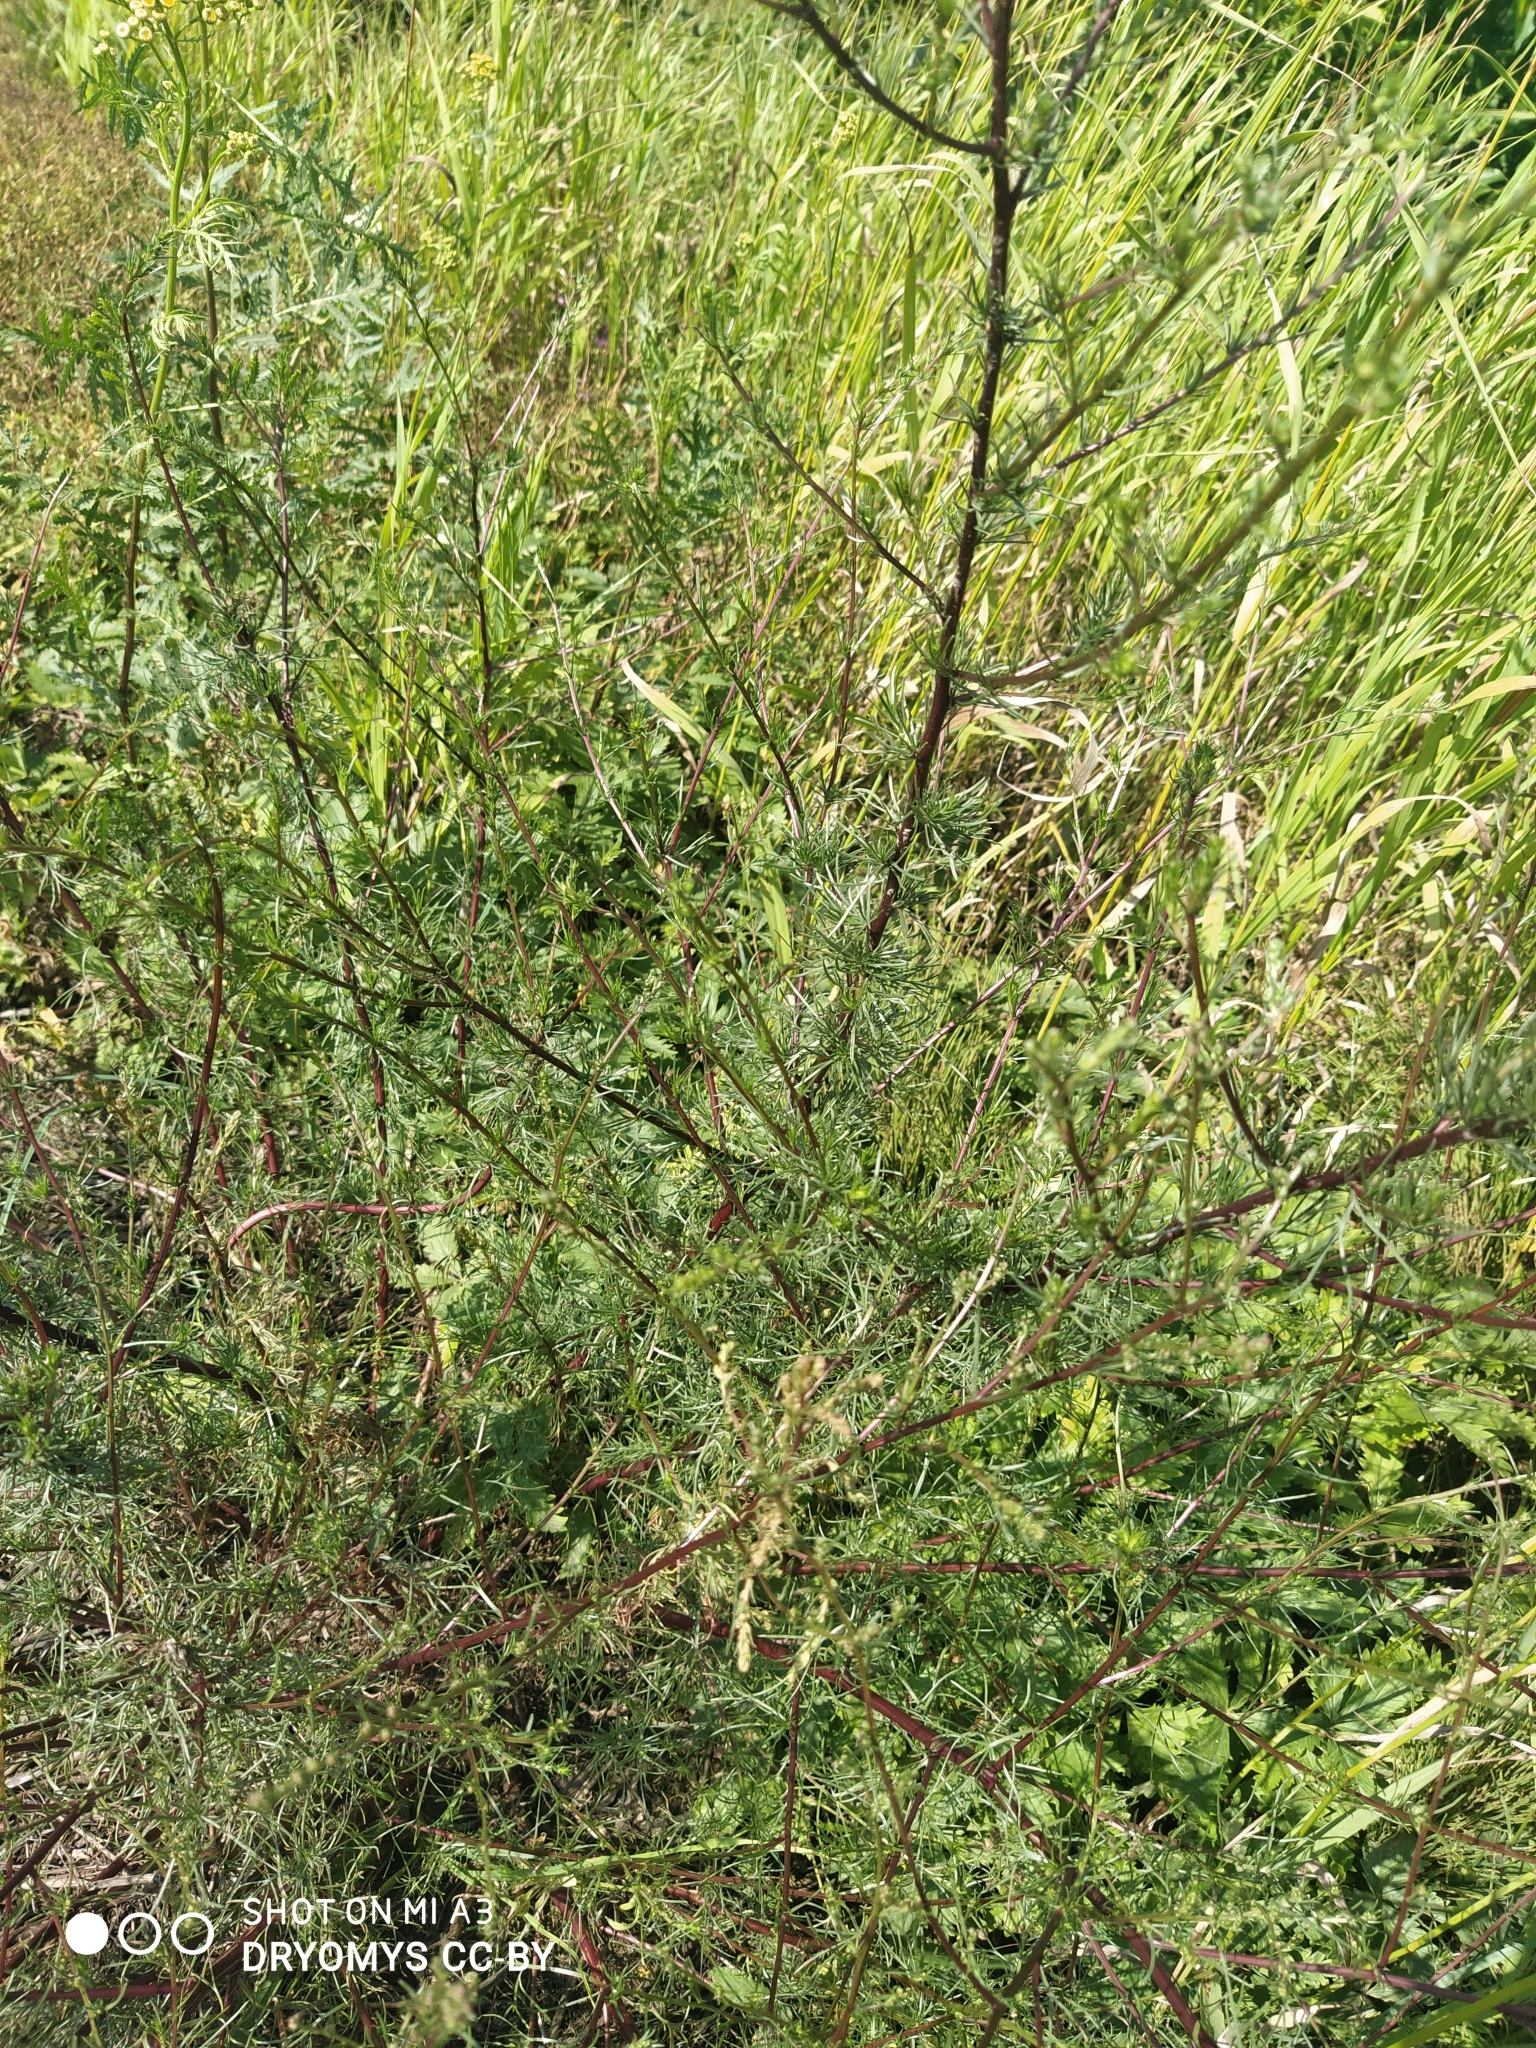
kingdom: Plantae
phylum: Tracheophyta
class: Magnoliopsida
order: Asterales
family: Asteraceae
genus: Artemisia
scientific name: Artemisia campestris
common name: Field wormwood
